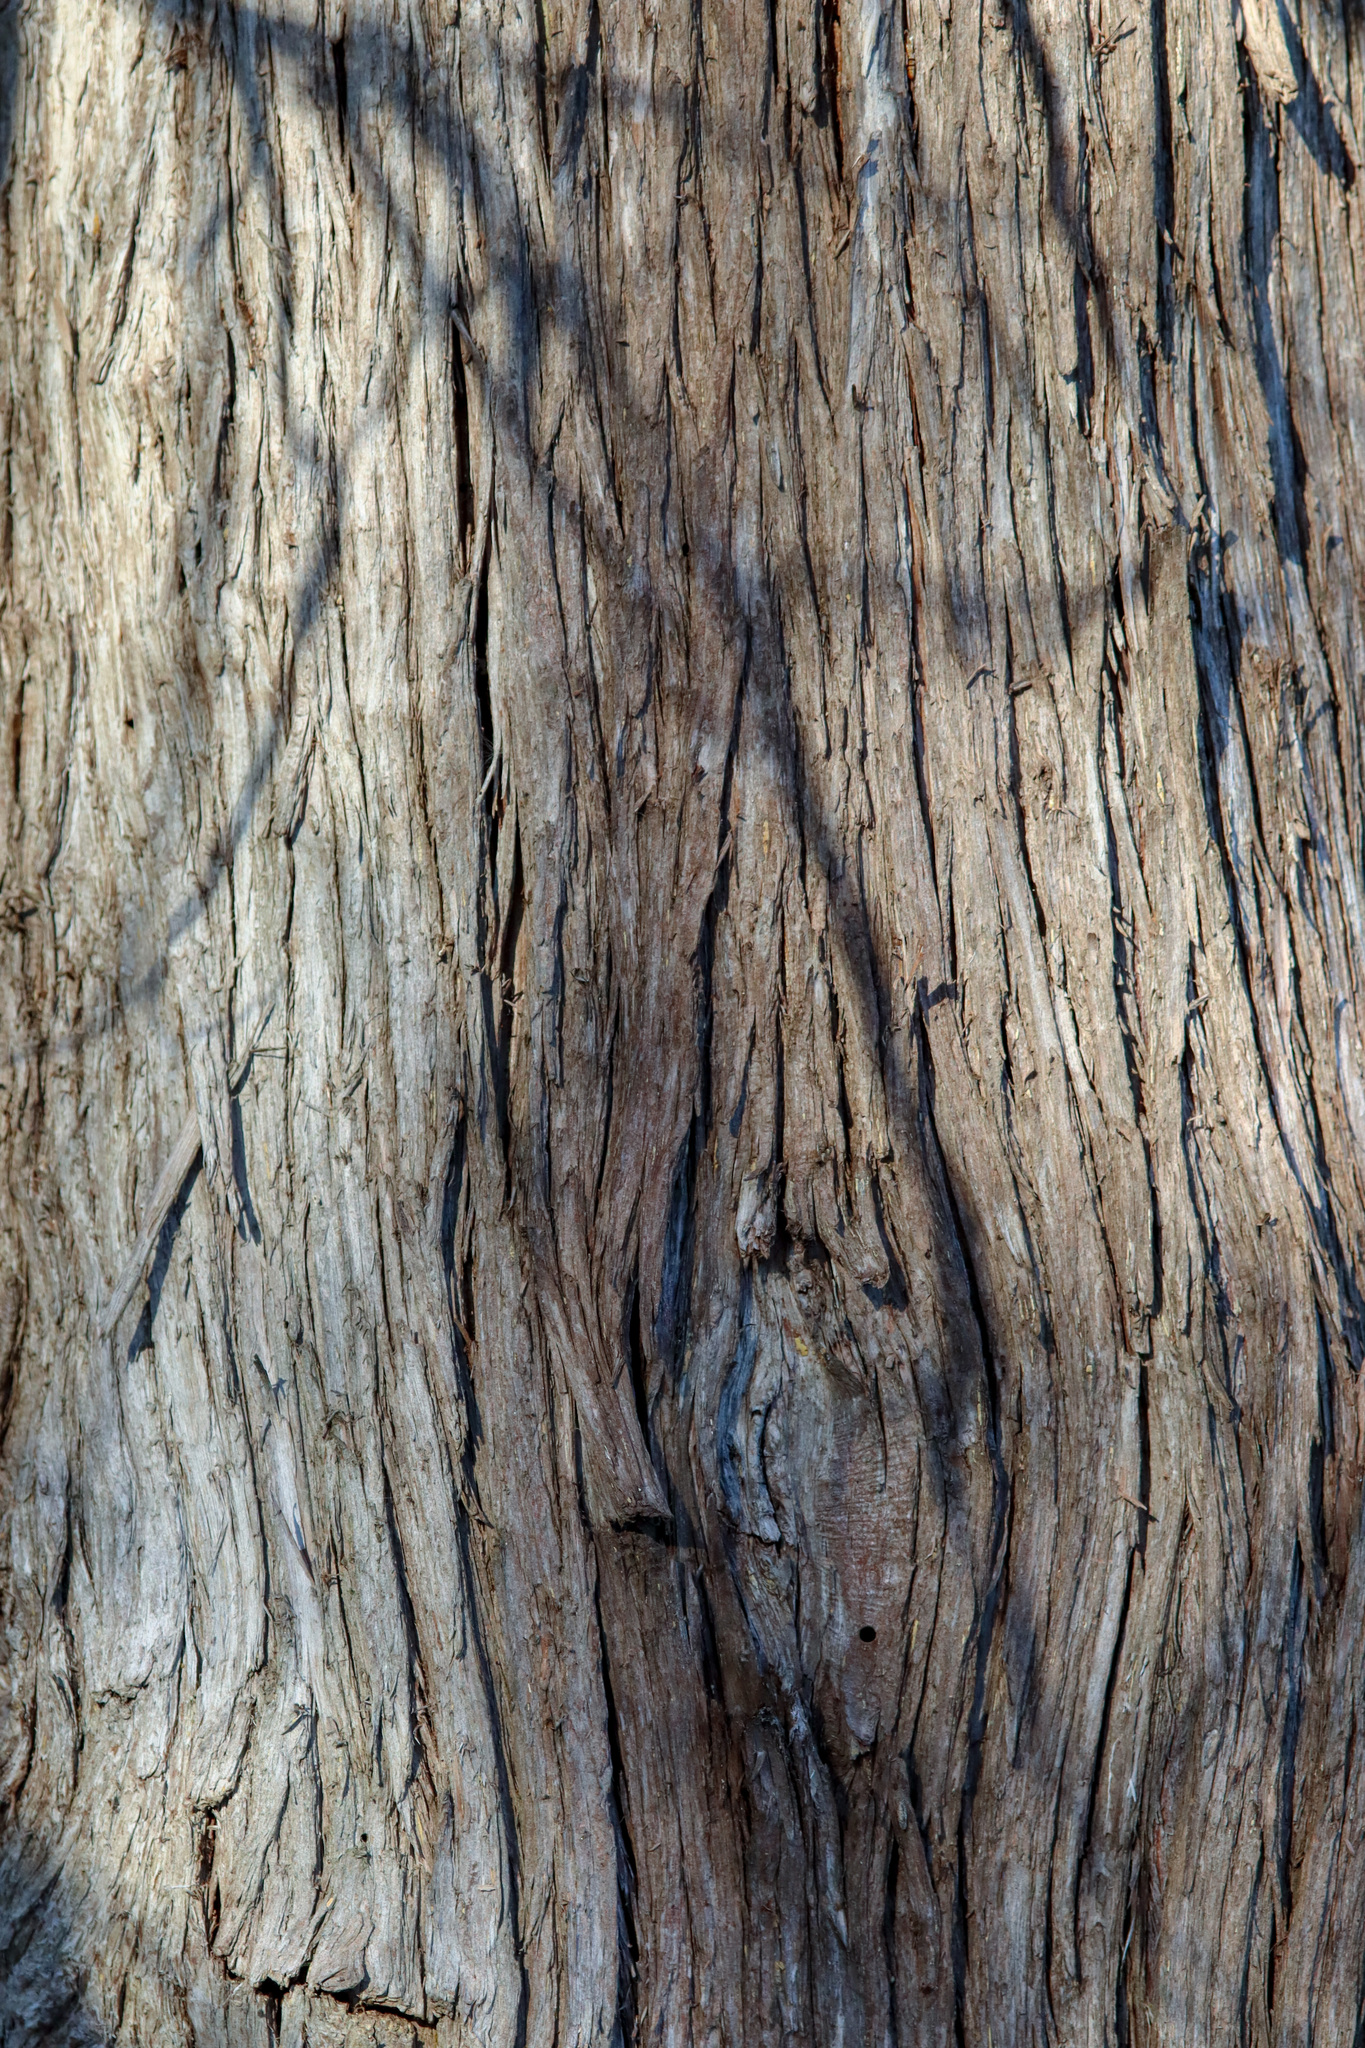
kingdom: Plantae
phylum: Tracheophyta
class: Pinopsida
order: Pinales
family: Cupressaceae
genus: Thuja
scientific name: Thuja occidentalis
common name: Northern white-cedar
